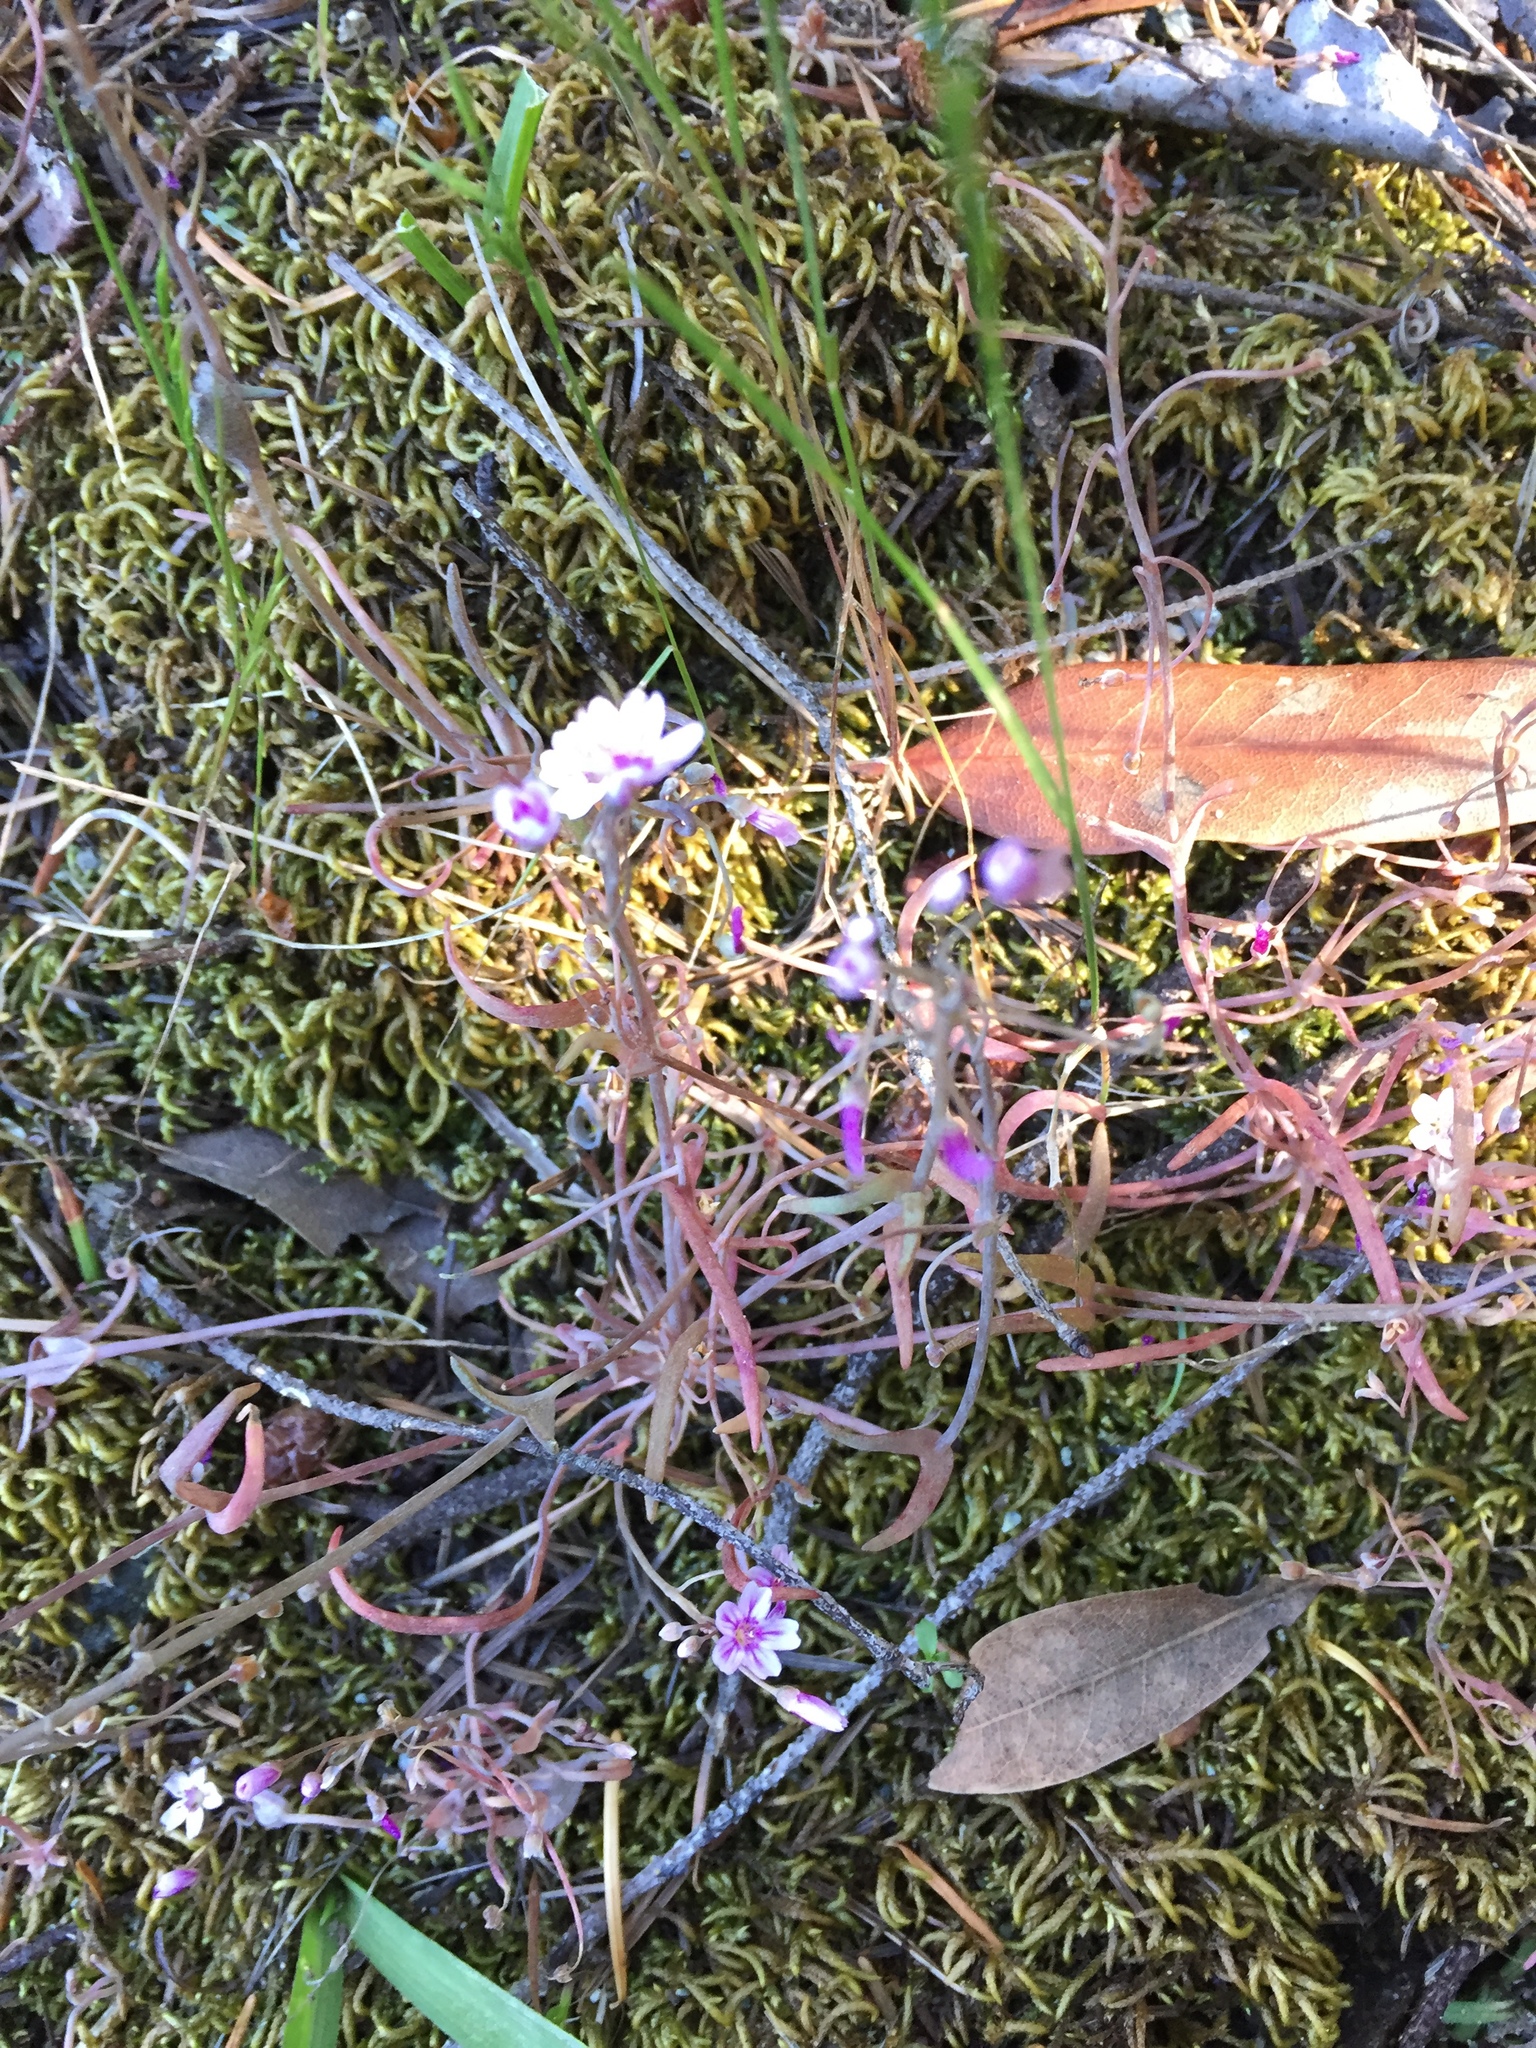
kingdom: Plantae
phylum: Tracheophyta
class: Magnoliopsida
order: Caryophyllales
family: Montiaceae
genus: Claytonia
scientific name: Claytonia gypsophiloides
